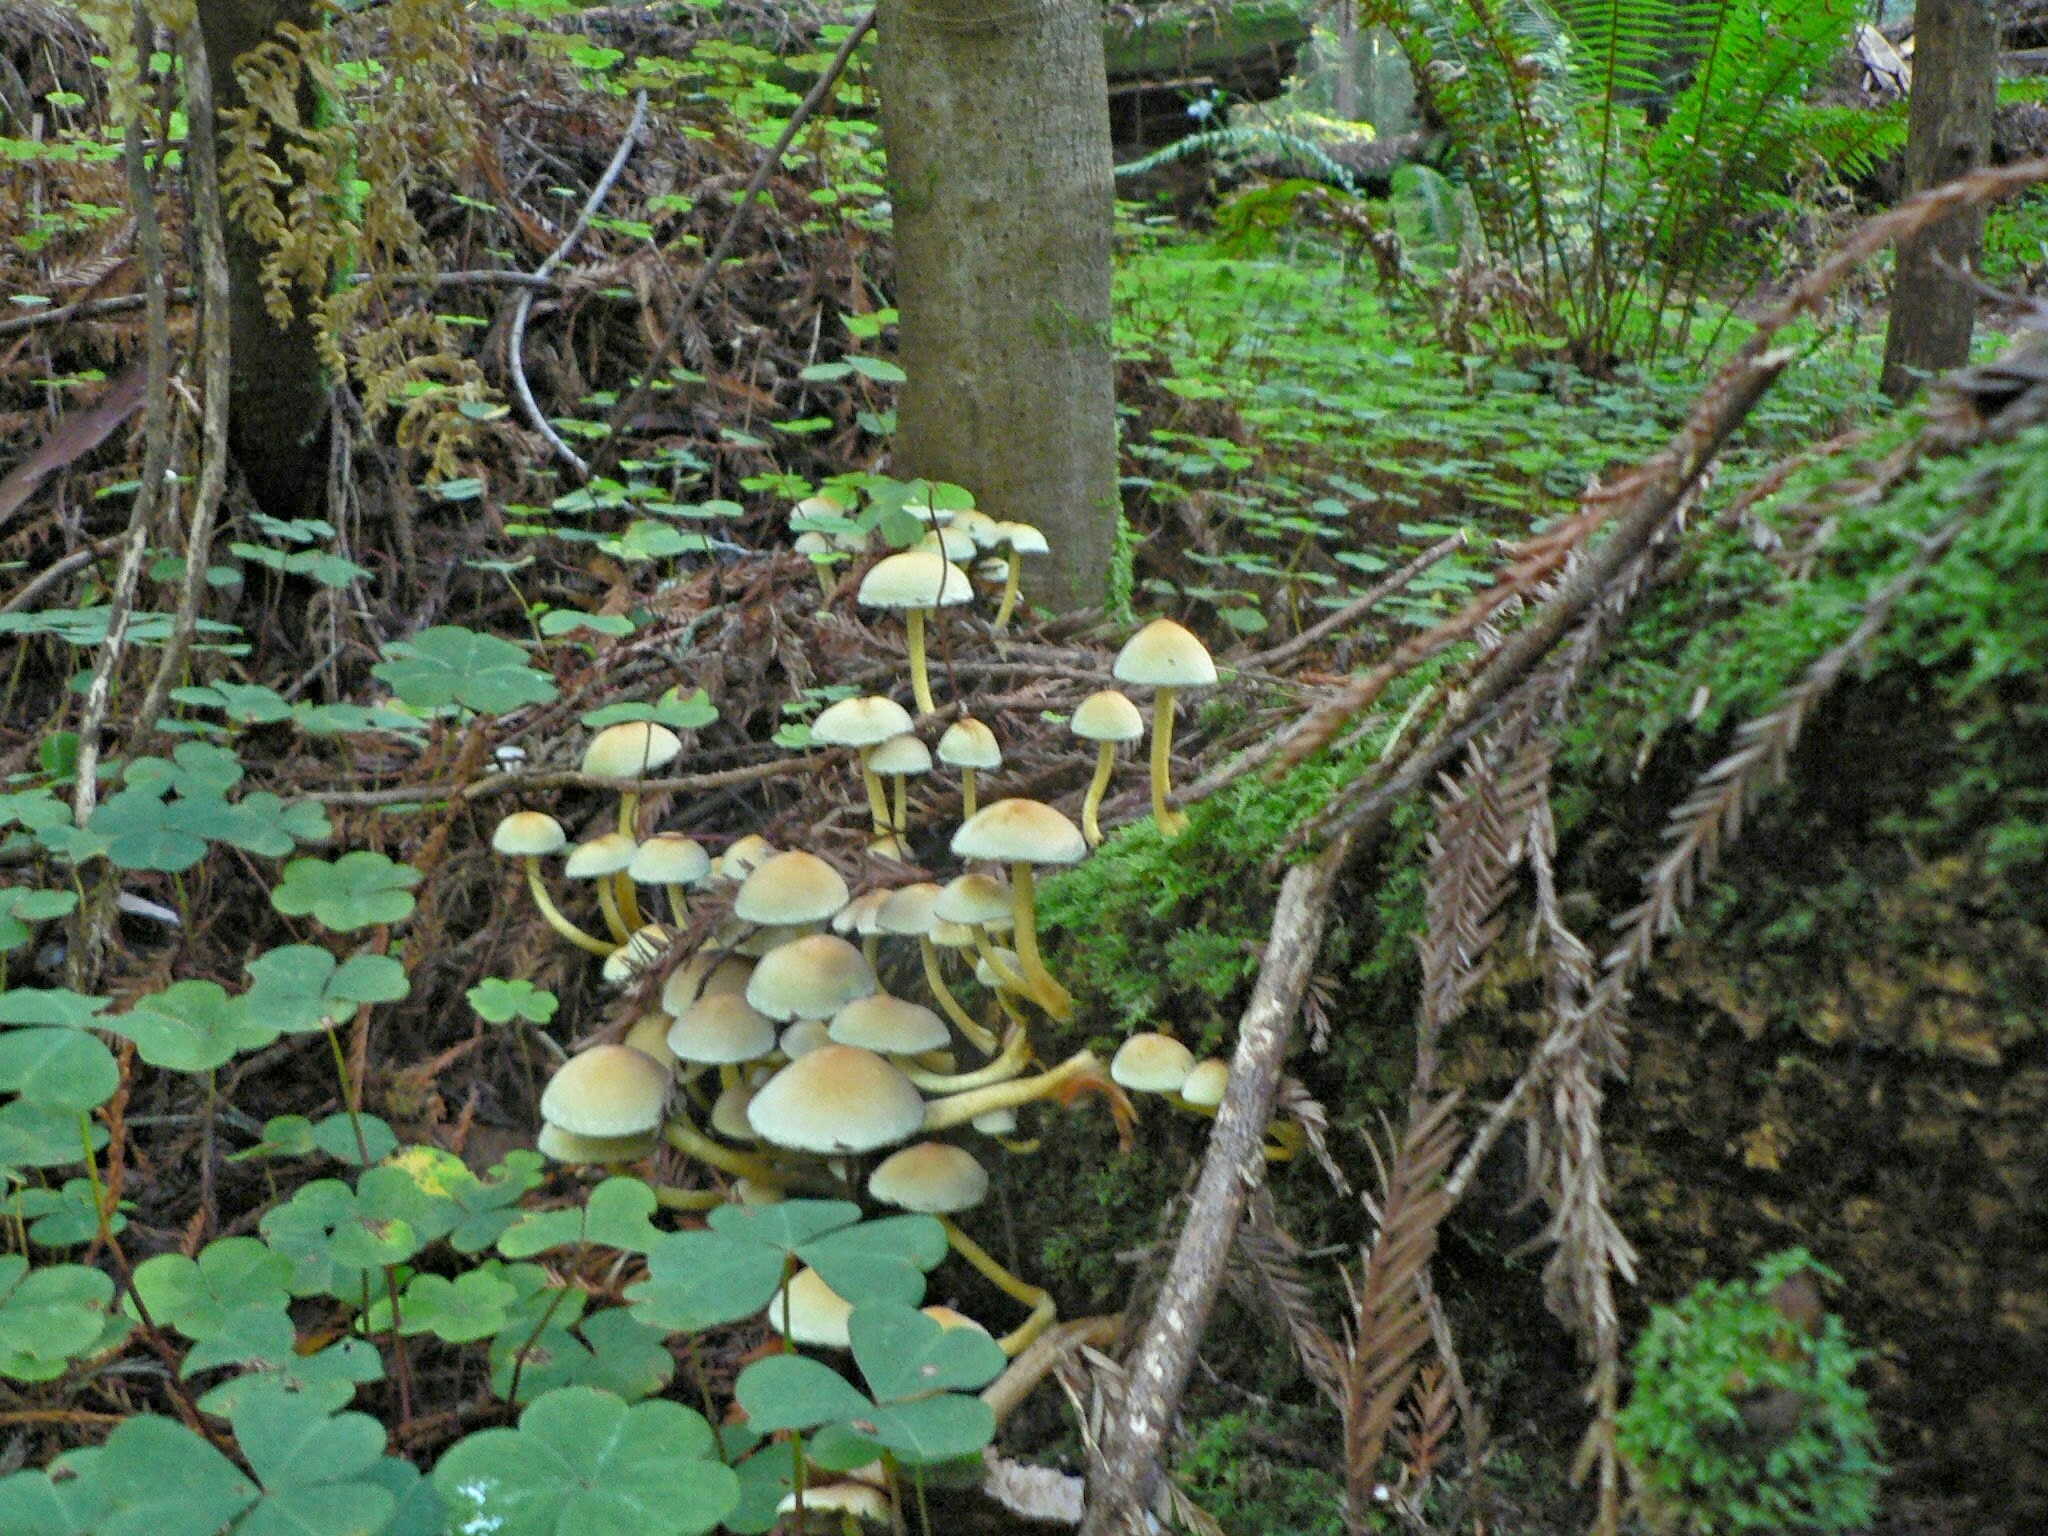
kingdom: Fungi
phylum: Basidiomycota
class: Agaricomycetes
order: Agaricales
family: Strophariaceae
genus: Hypholoma
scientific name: Hypholoma fasciculare
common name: Sulphur tuft
